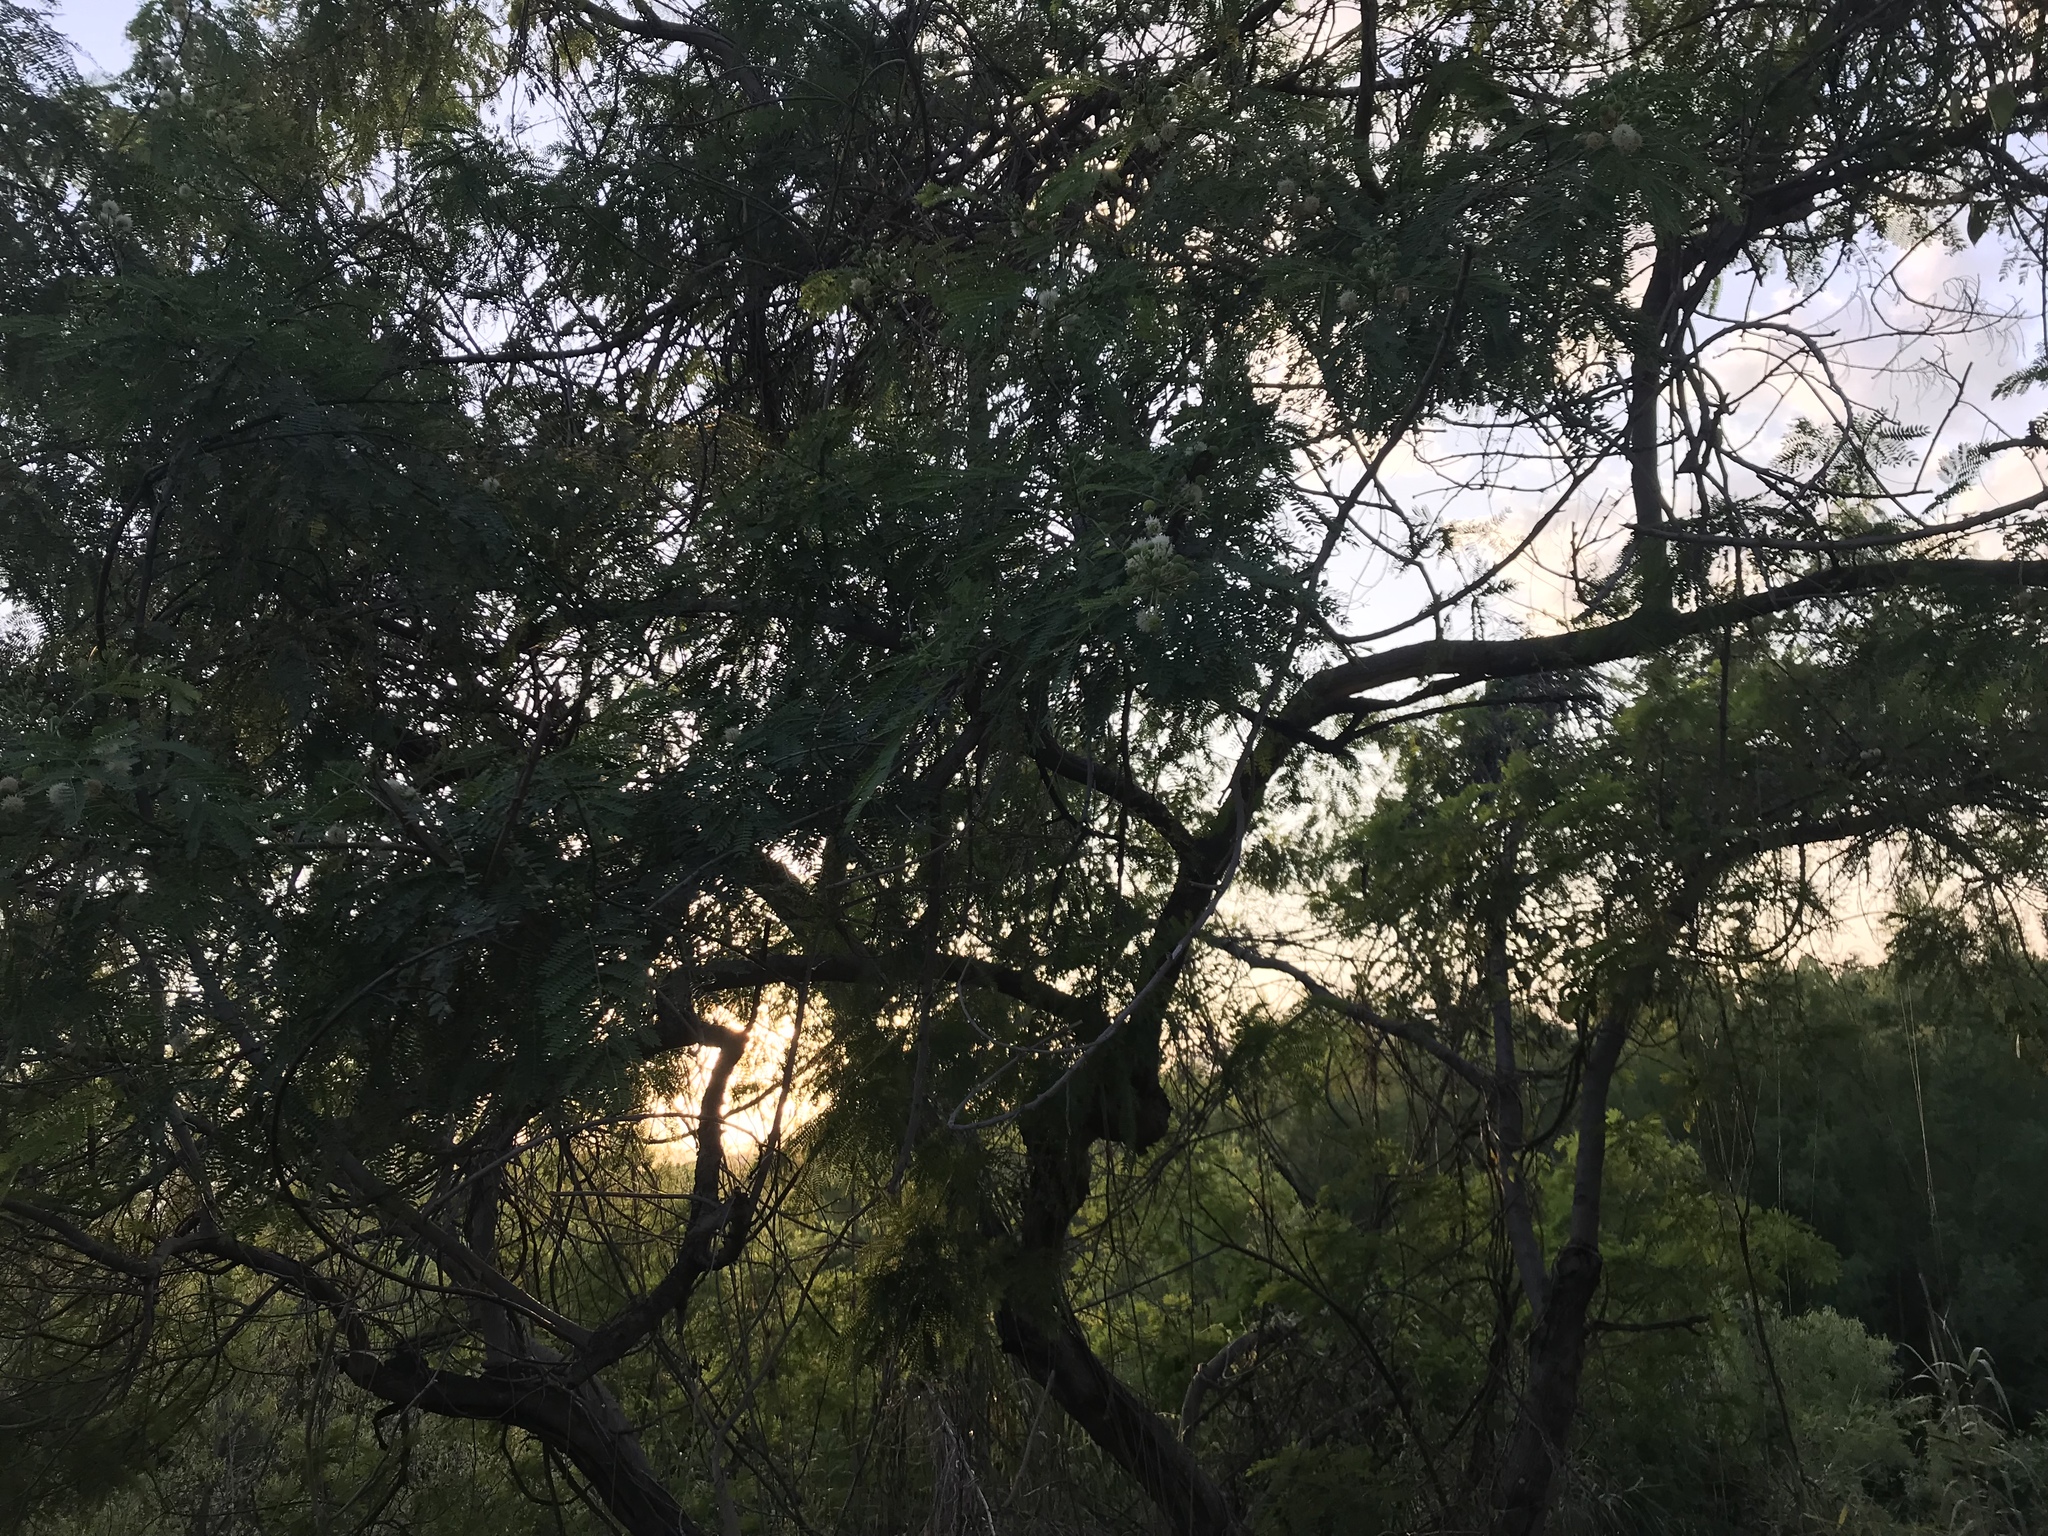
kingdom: Plantae
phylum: Tracheophyta
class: Magnoliopsida
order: Fabales
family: Fabaceae
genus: Leucaena
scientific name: Leucaena leucocephala
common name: White leadtree
